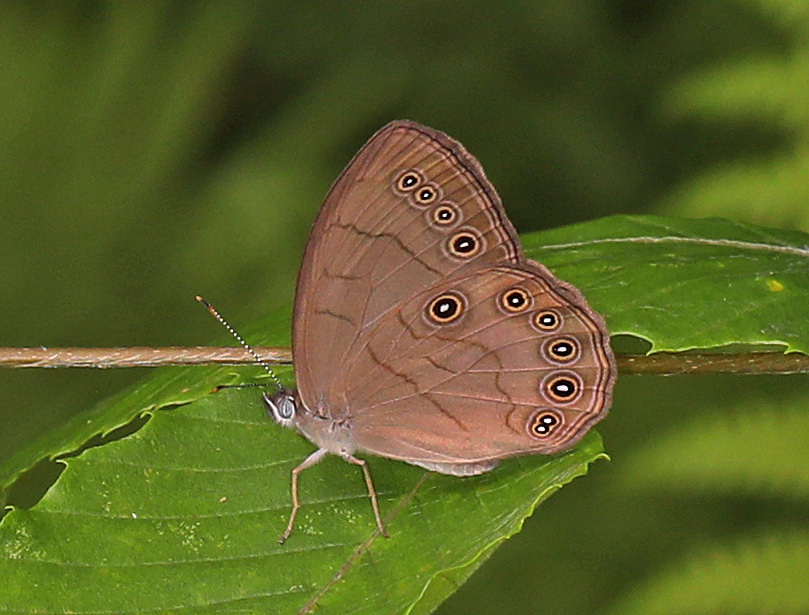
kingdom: Animalia
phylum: Arthropoda
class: Insecta
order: Lepidoptera
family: Nymphalidae
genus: Lethe
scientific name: Lethe eurydice
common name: Eyed brown
